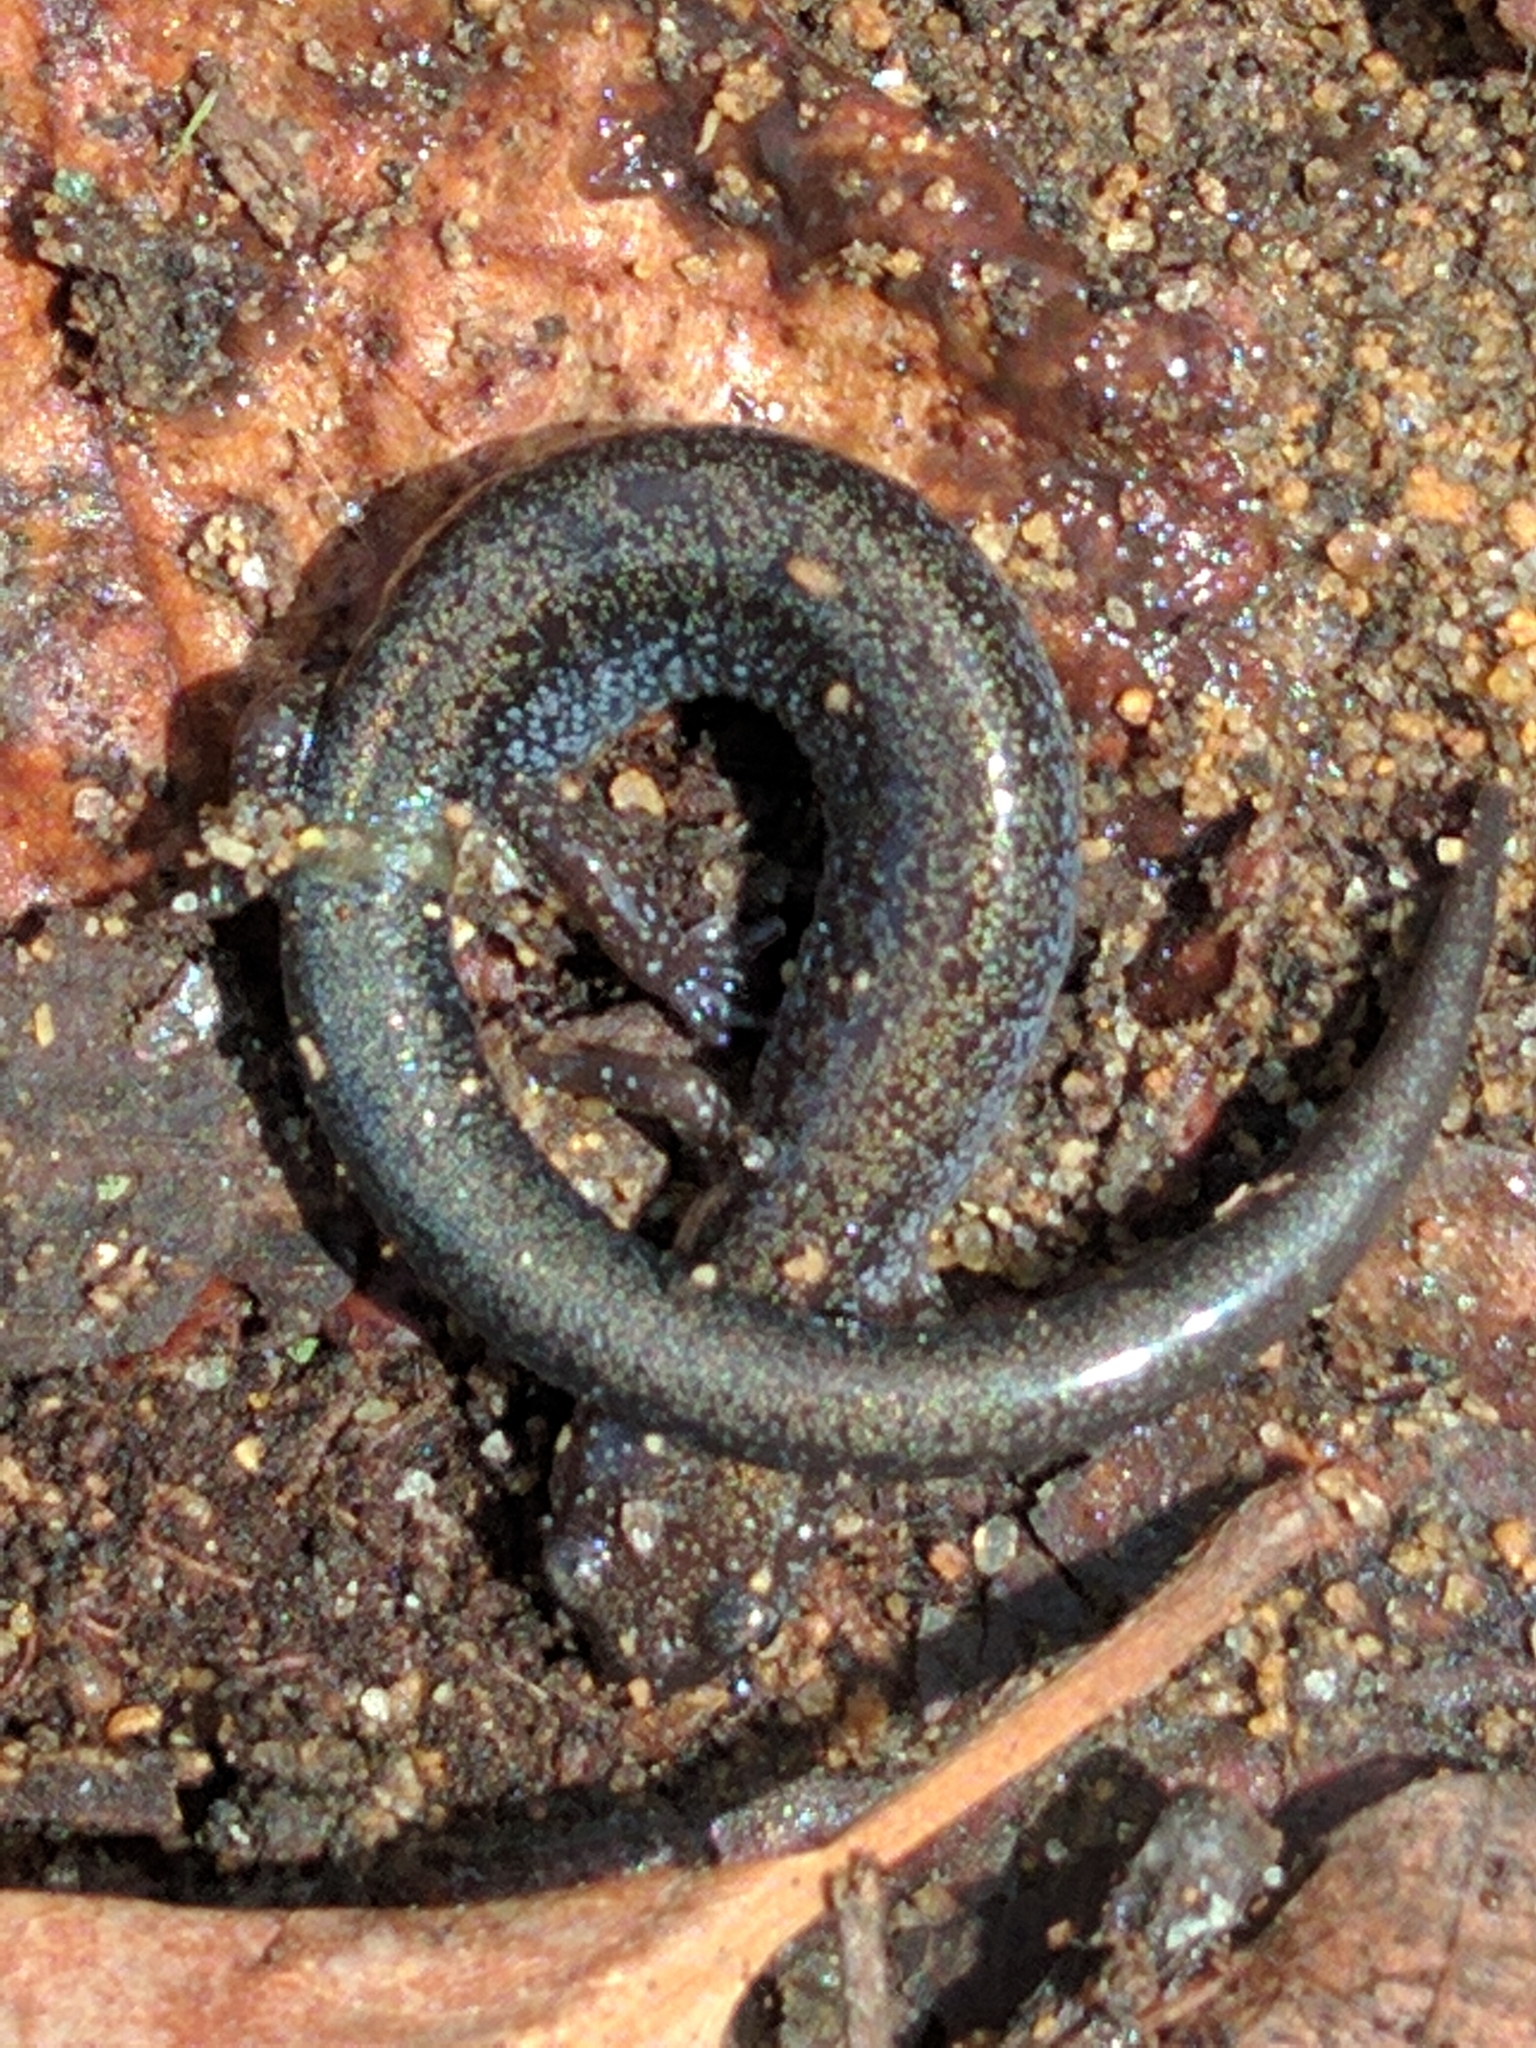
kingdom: Animalia
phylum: Chordata
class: Amphibia
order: Caudata
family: Plethodontidae
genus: Plethodon
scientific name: Plethodon cinereus
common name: Redback salamander
